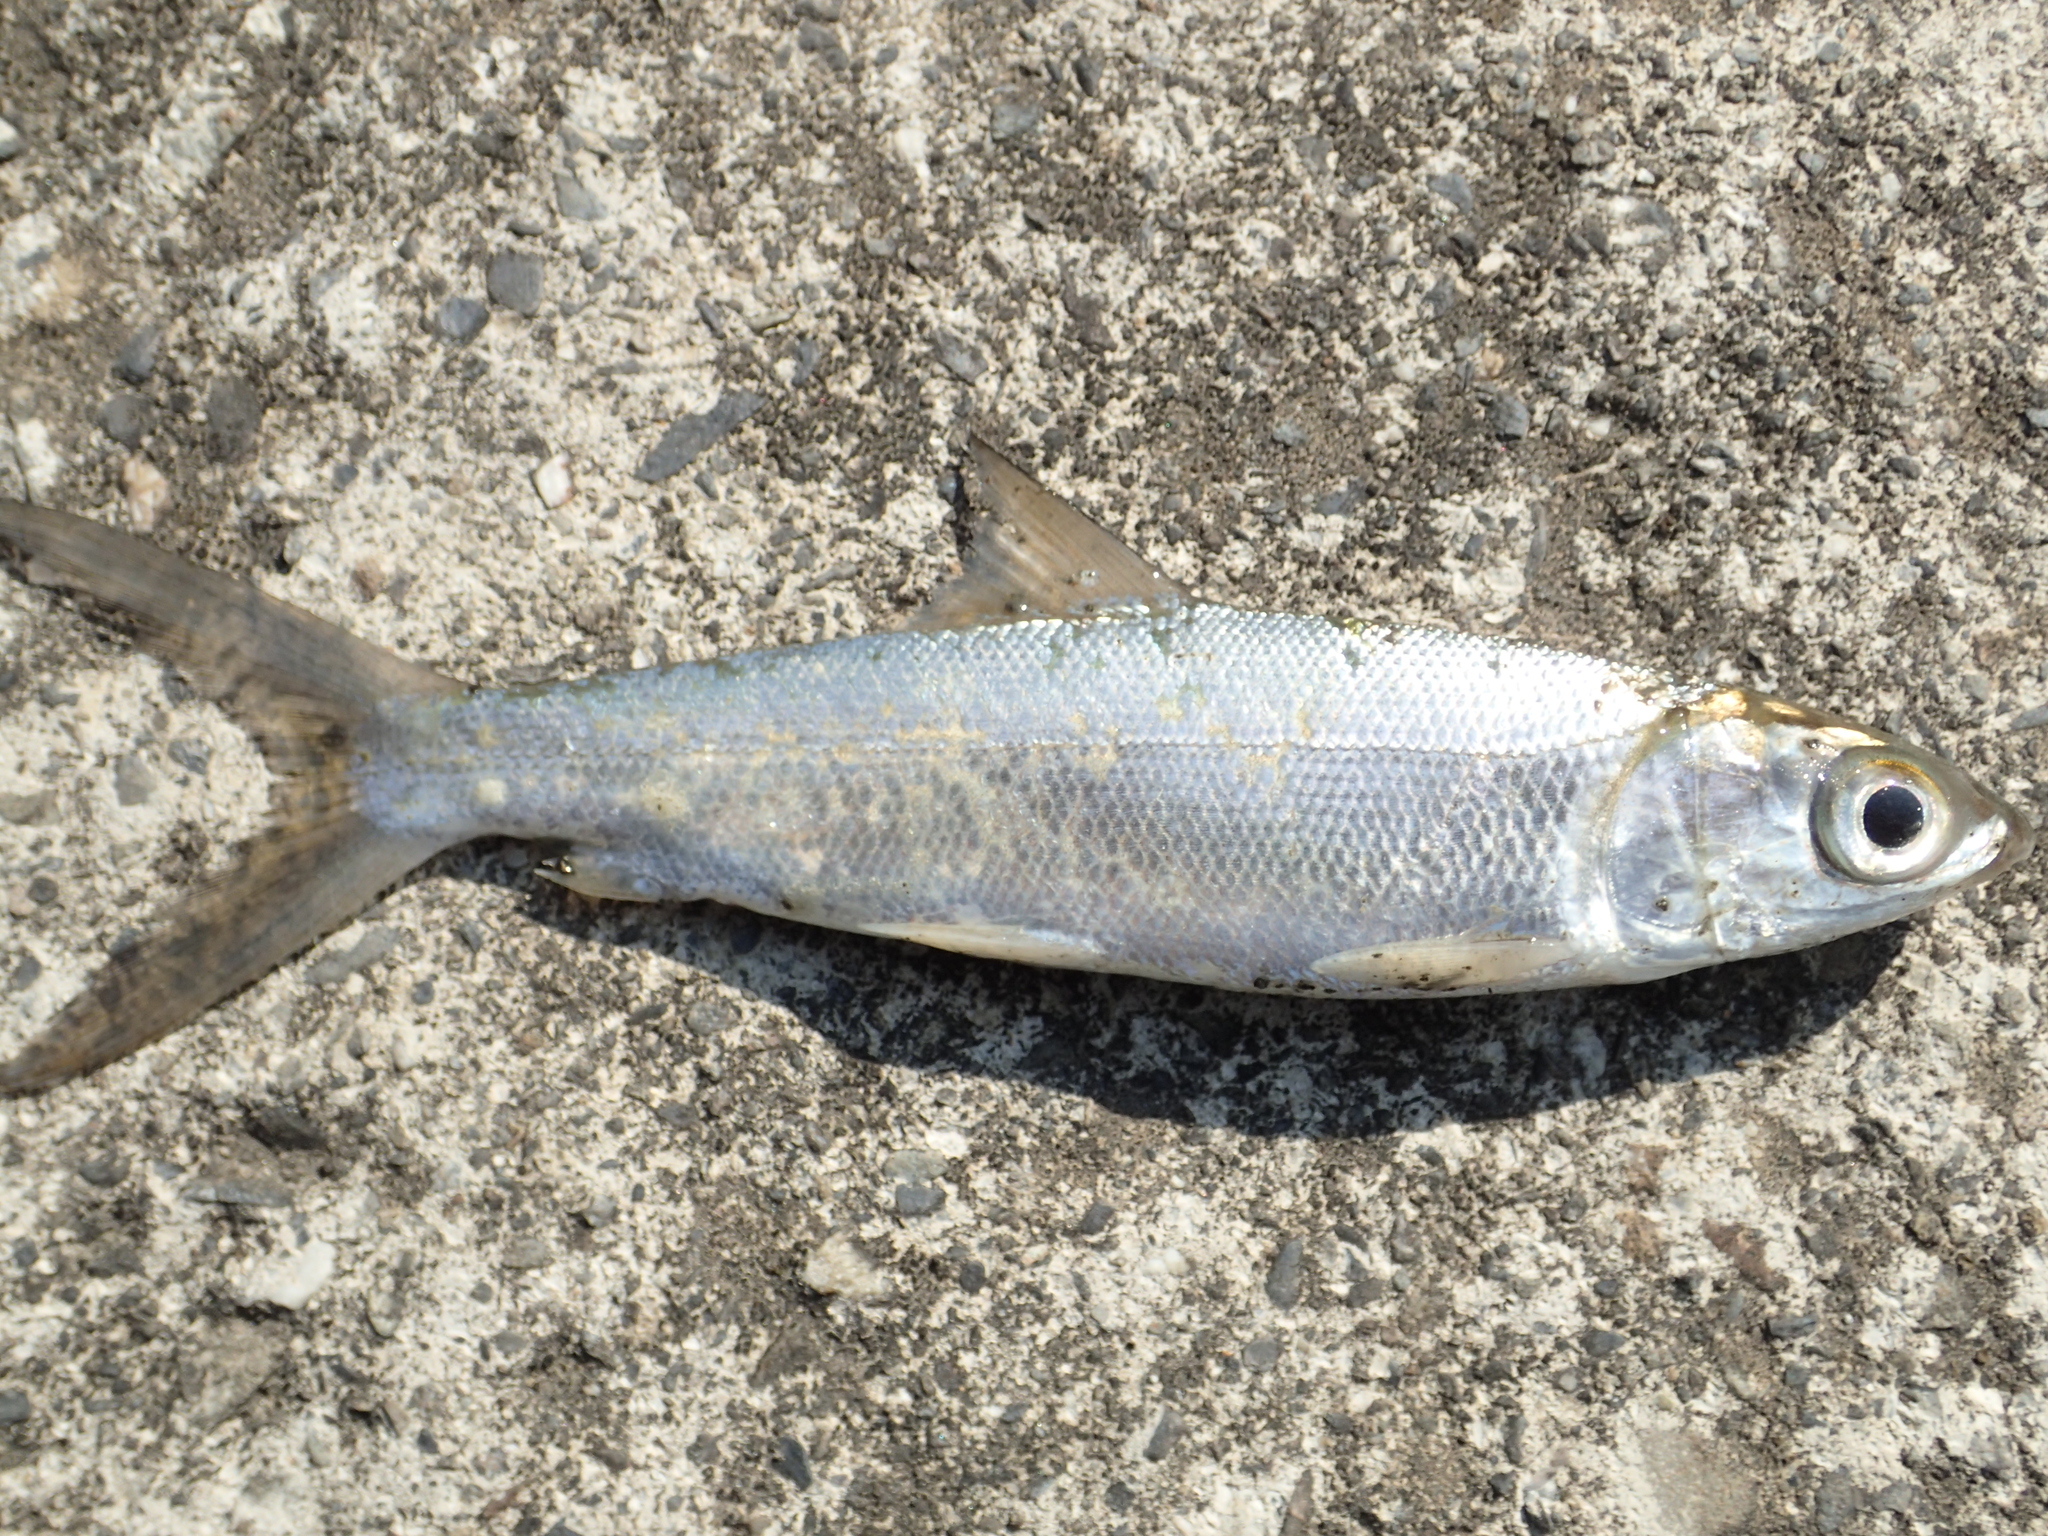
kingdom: Animalia
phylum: Chordata
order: Gonorynchiformes
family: Chanidae
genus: Chanos
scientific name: Chanos chanos
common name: Milkfish
